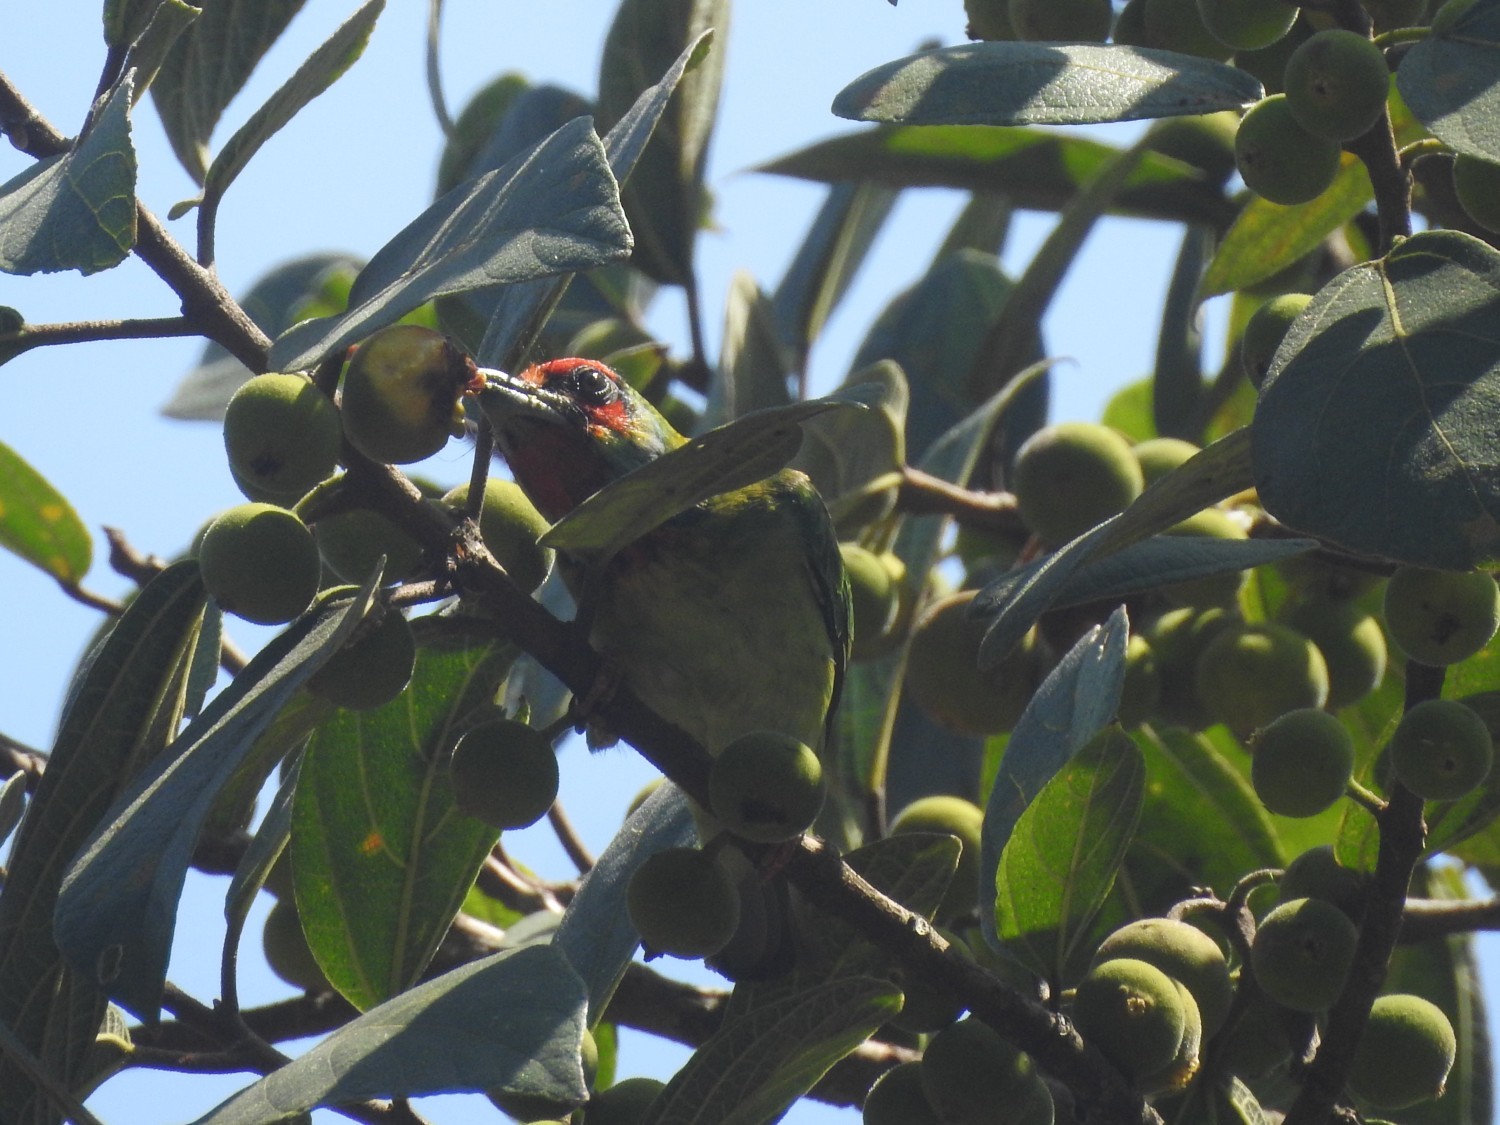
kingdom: Animalia
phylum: Chordata
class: Aves
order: Piciformes
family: Megalaimidae
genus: Psilopogon
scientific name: Psilopogon malabaricus
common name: Malabar barbet
